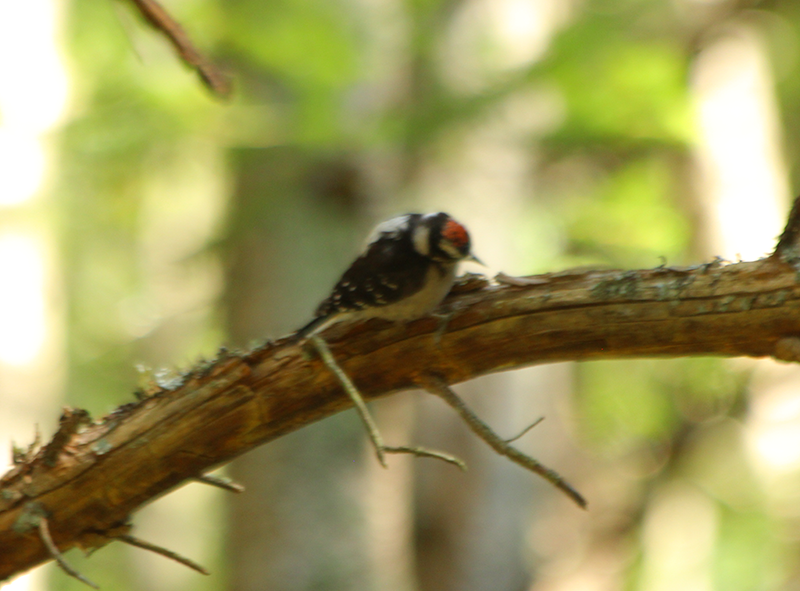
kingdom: Animalia
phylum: Chordata
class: Aves
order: Piciformes
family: Picidae
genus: Dryobates
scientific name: Dryobates pubescens
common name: Downy woodpecker
